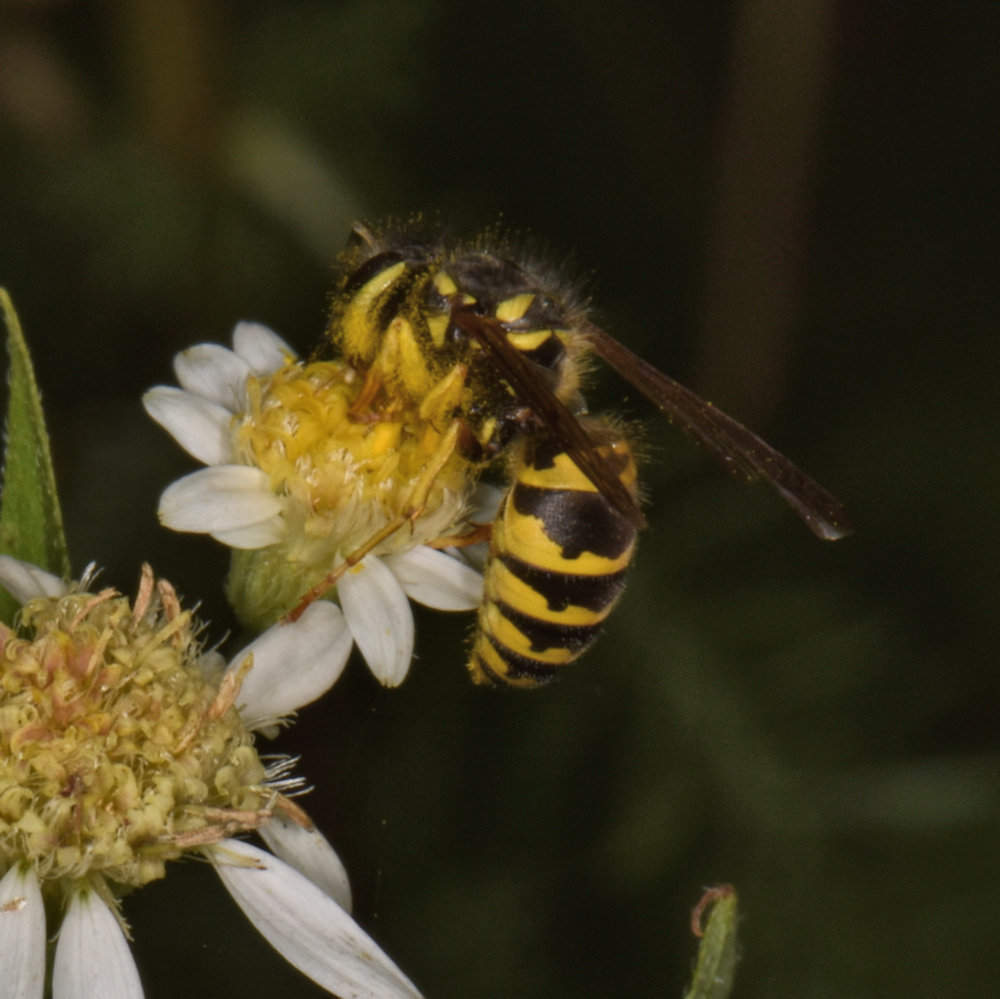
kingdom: Animalia
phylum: Arthropoda
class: Insecta
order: Hymenoptera
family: Vespidae
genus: Vespula
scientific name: Vespula maculifrons
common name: Eastern yellowjacket
